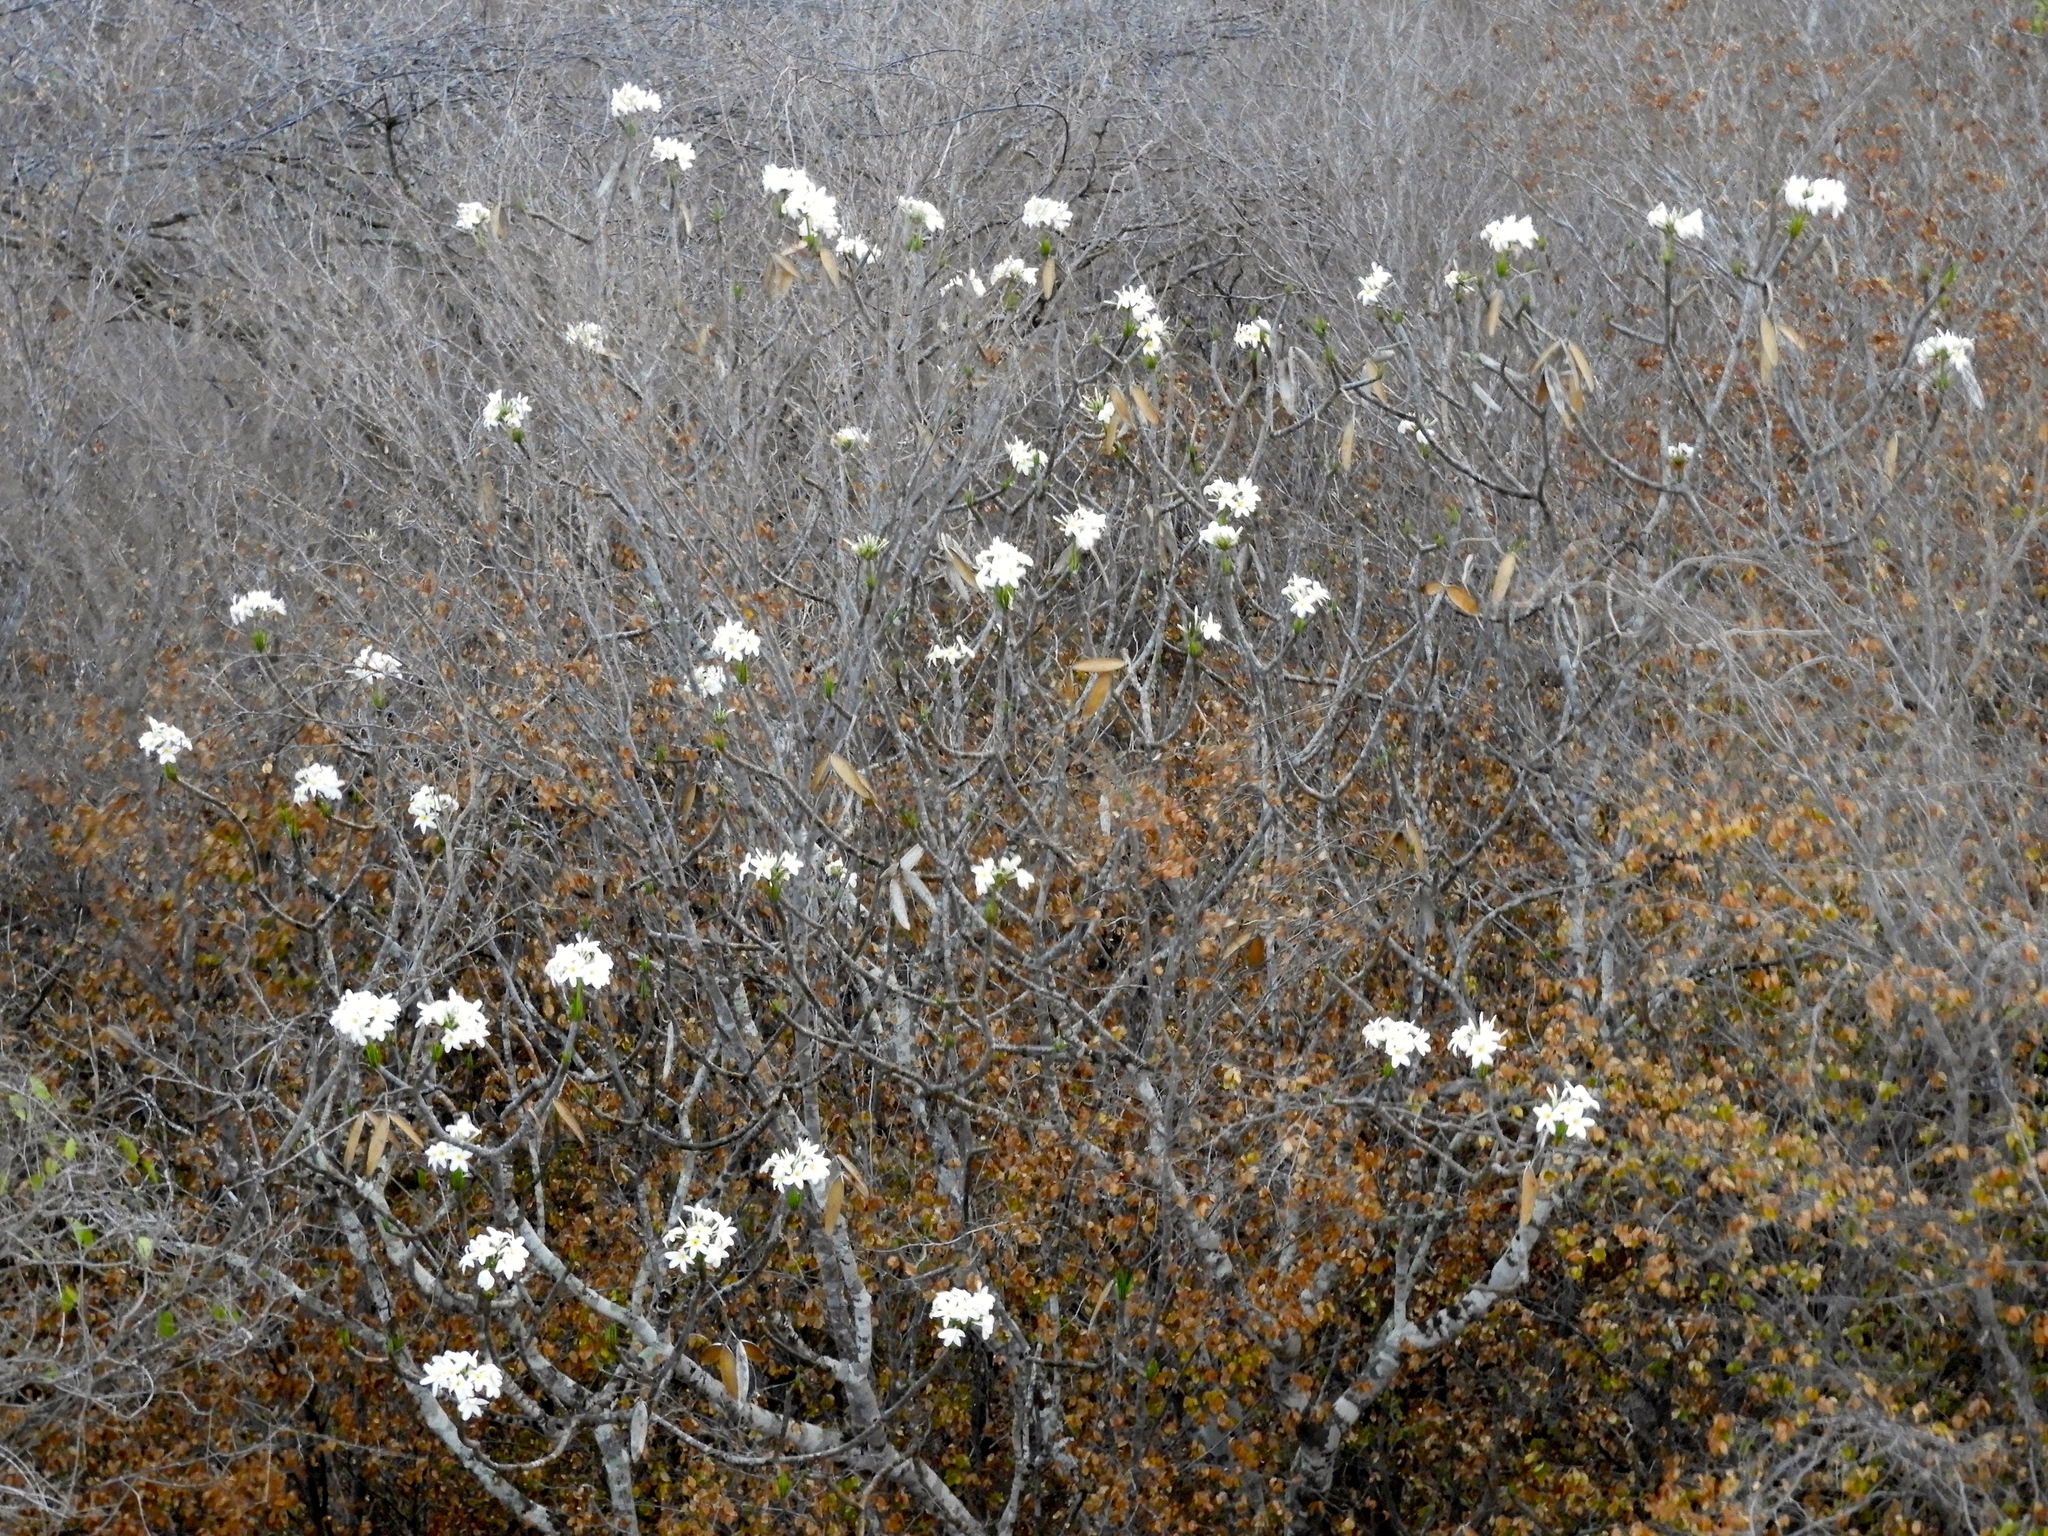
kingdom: Plantae
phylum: Tracheophyta
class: Magnoliopsida
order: Gentianales
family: Apocynaceae
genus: Plumeria
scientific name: Plumeria rubra
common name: Pagoda-tree
